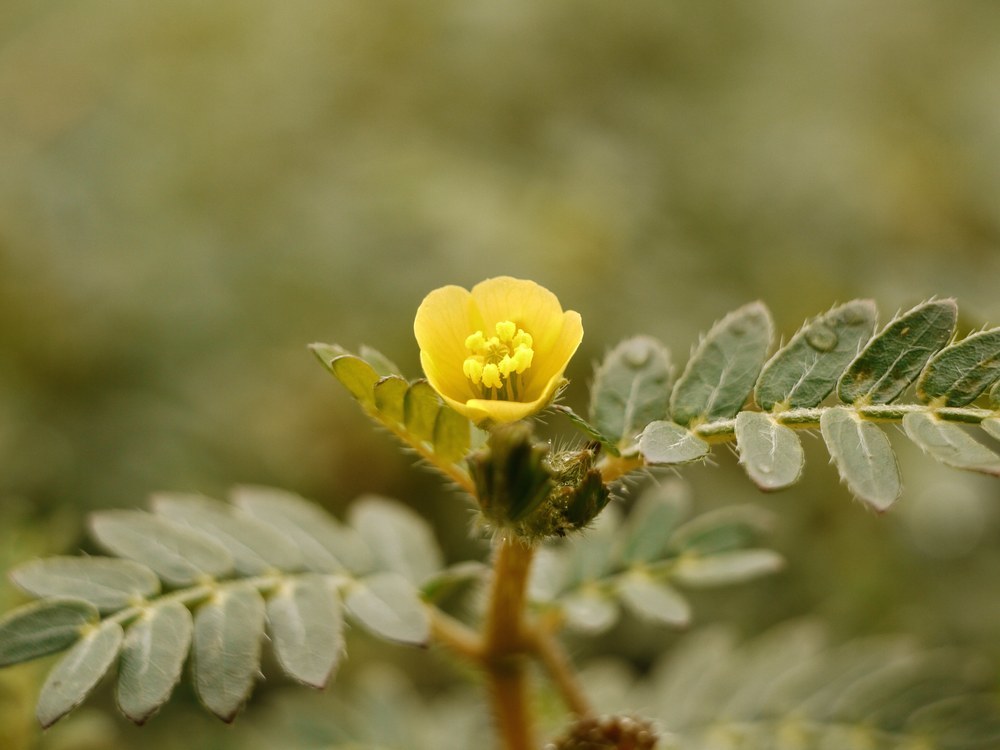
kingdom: Plantae
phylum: Tracheophyta
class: Magnoliopsida
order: Zygophyllales
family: Zygophyllaceae
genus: Tribulus
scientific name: Tribulus terrestris
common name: Puncturevine
